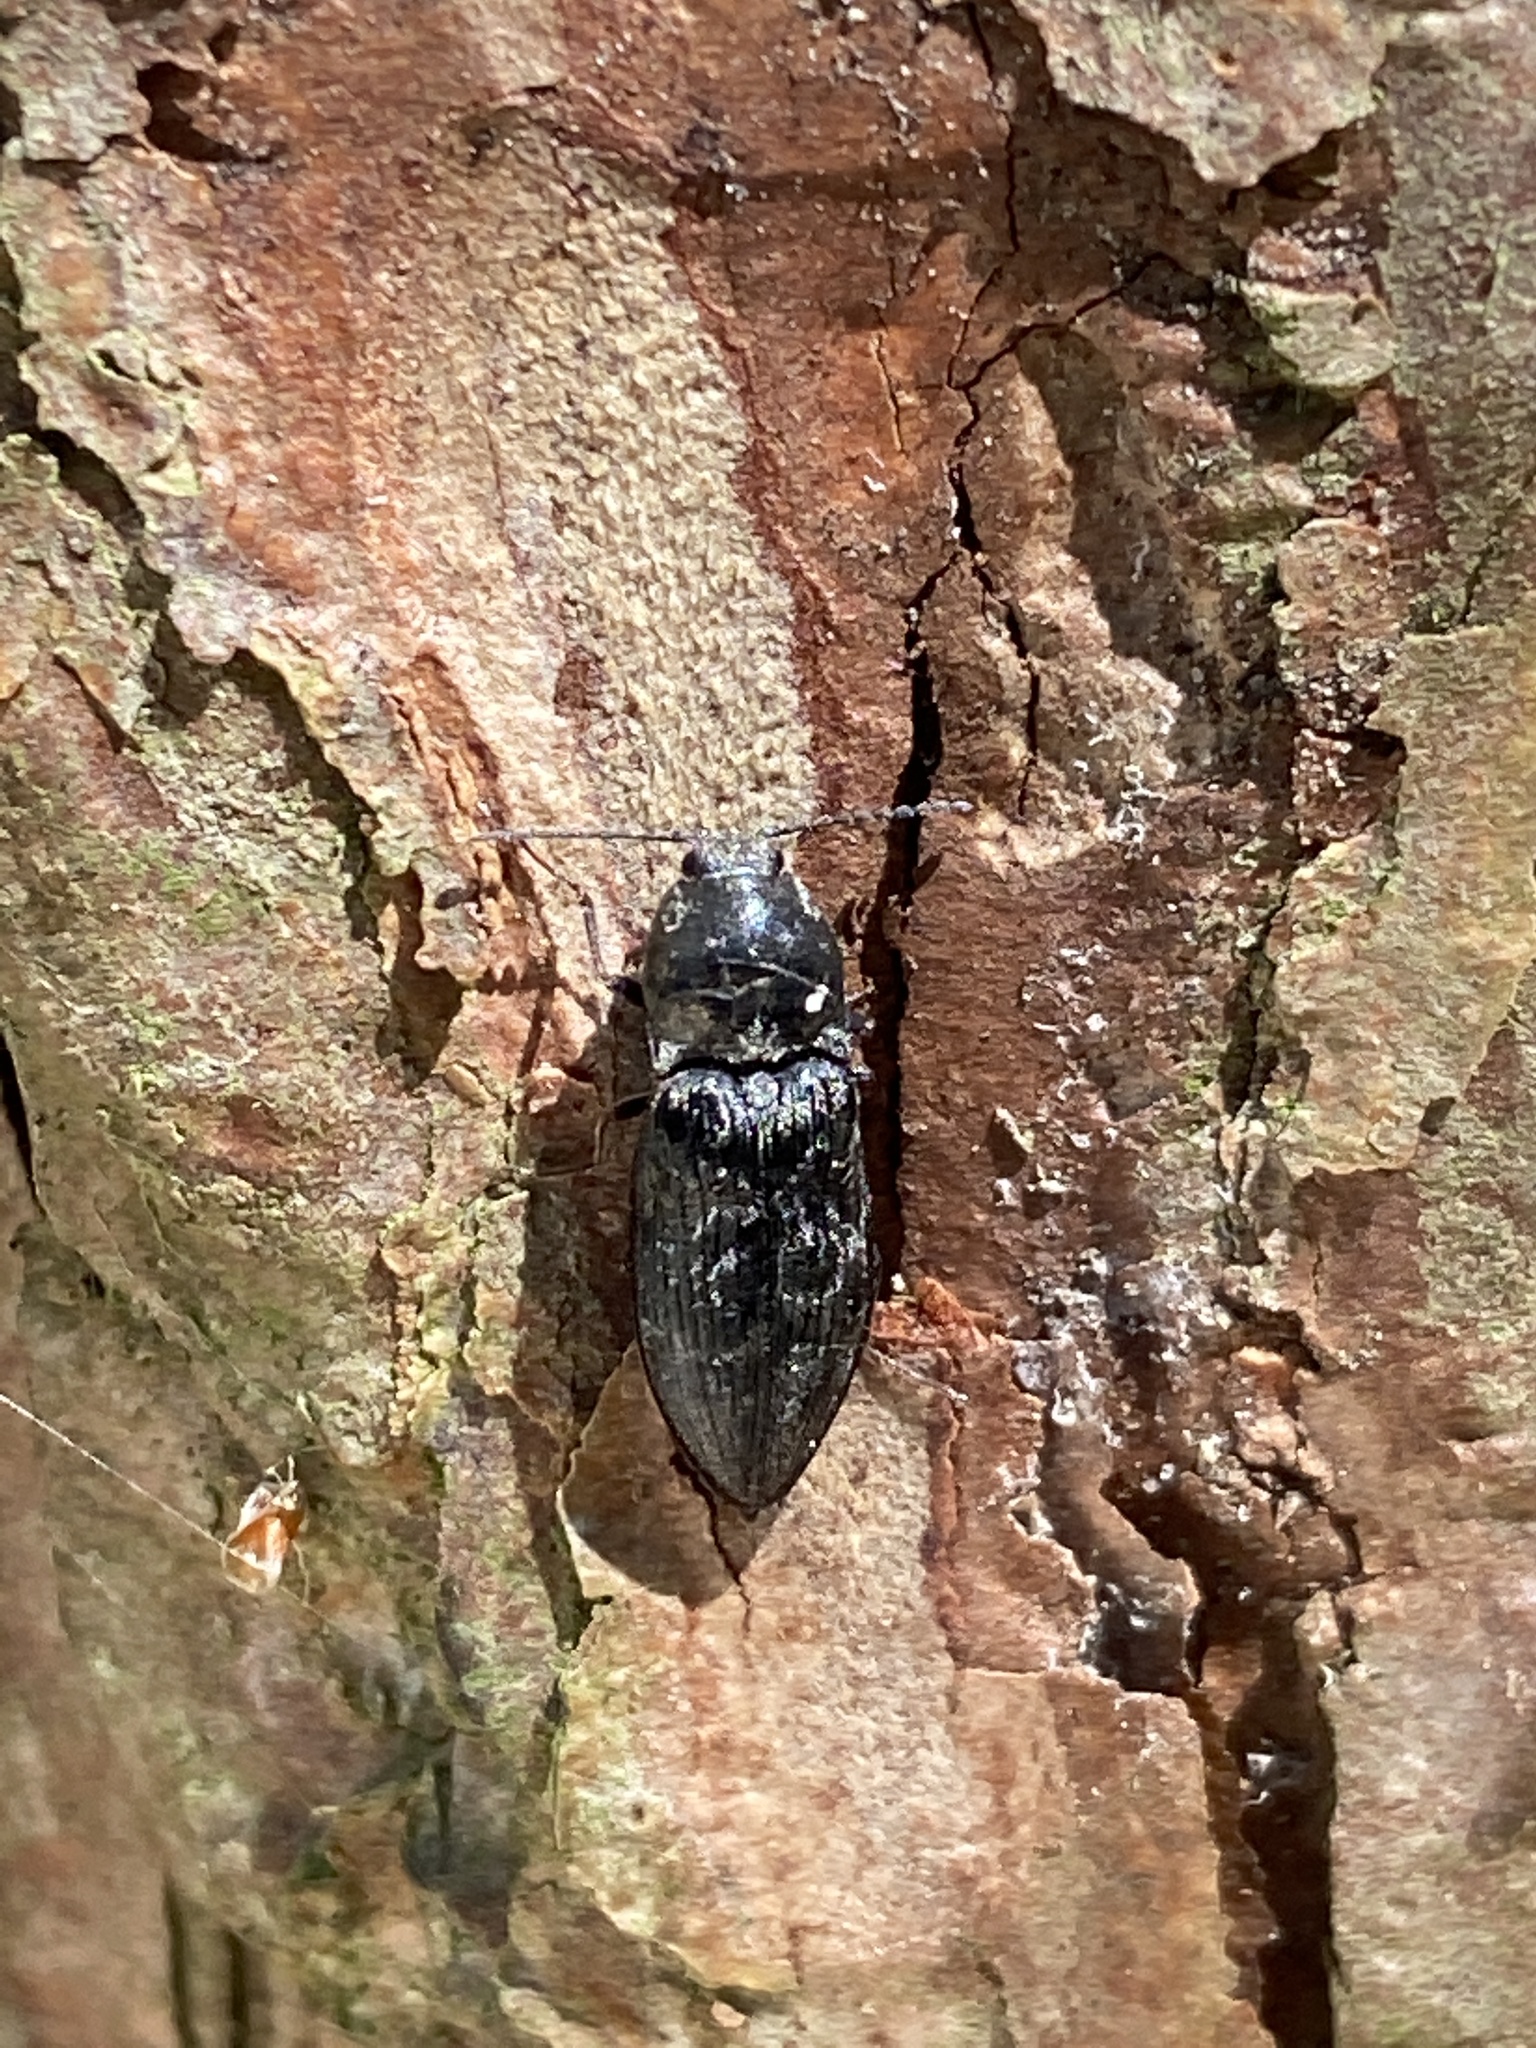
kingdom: Animalia
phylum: Arthropoda
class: Insecta
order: Coleoptera
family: Elateridae
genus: Prosternon
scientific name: Prosternon tessellatum
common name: Chequered click beetle
